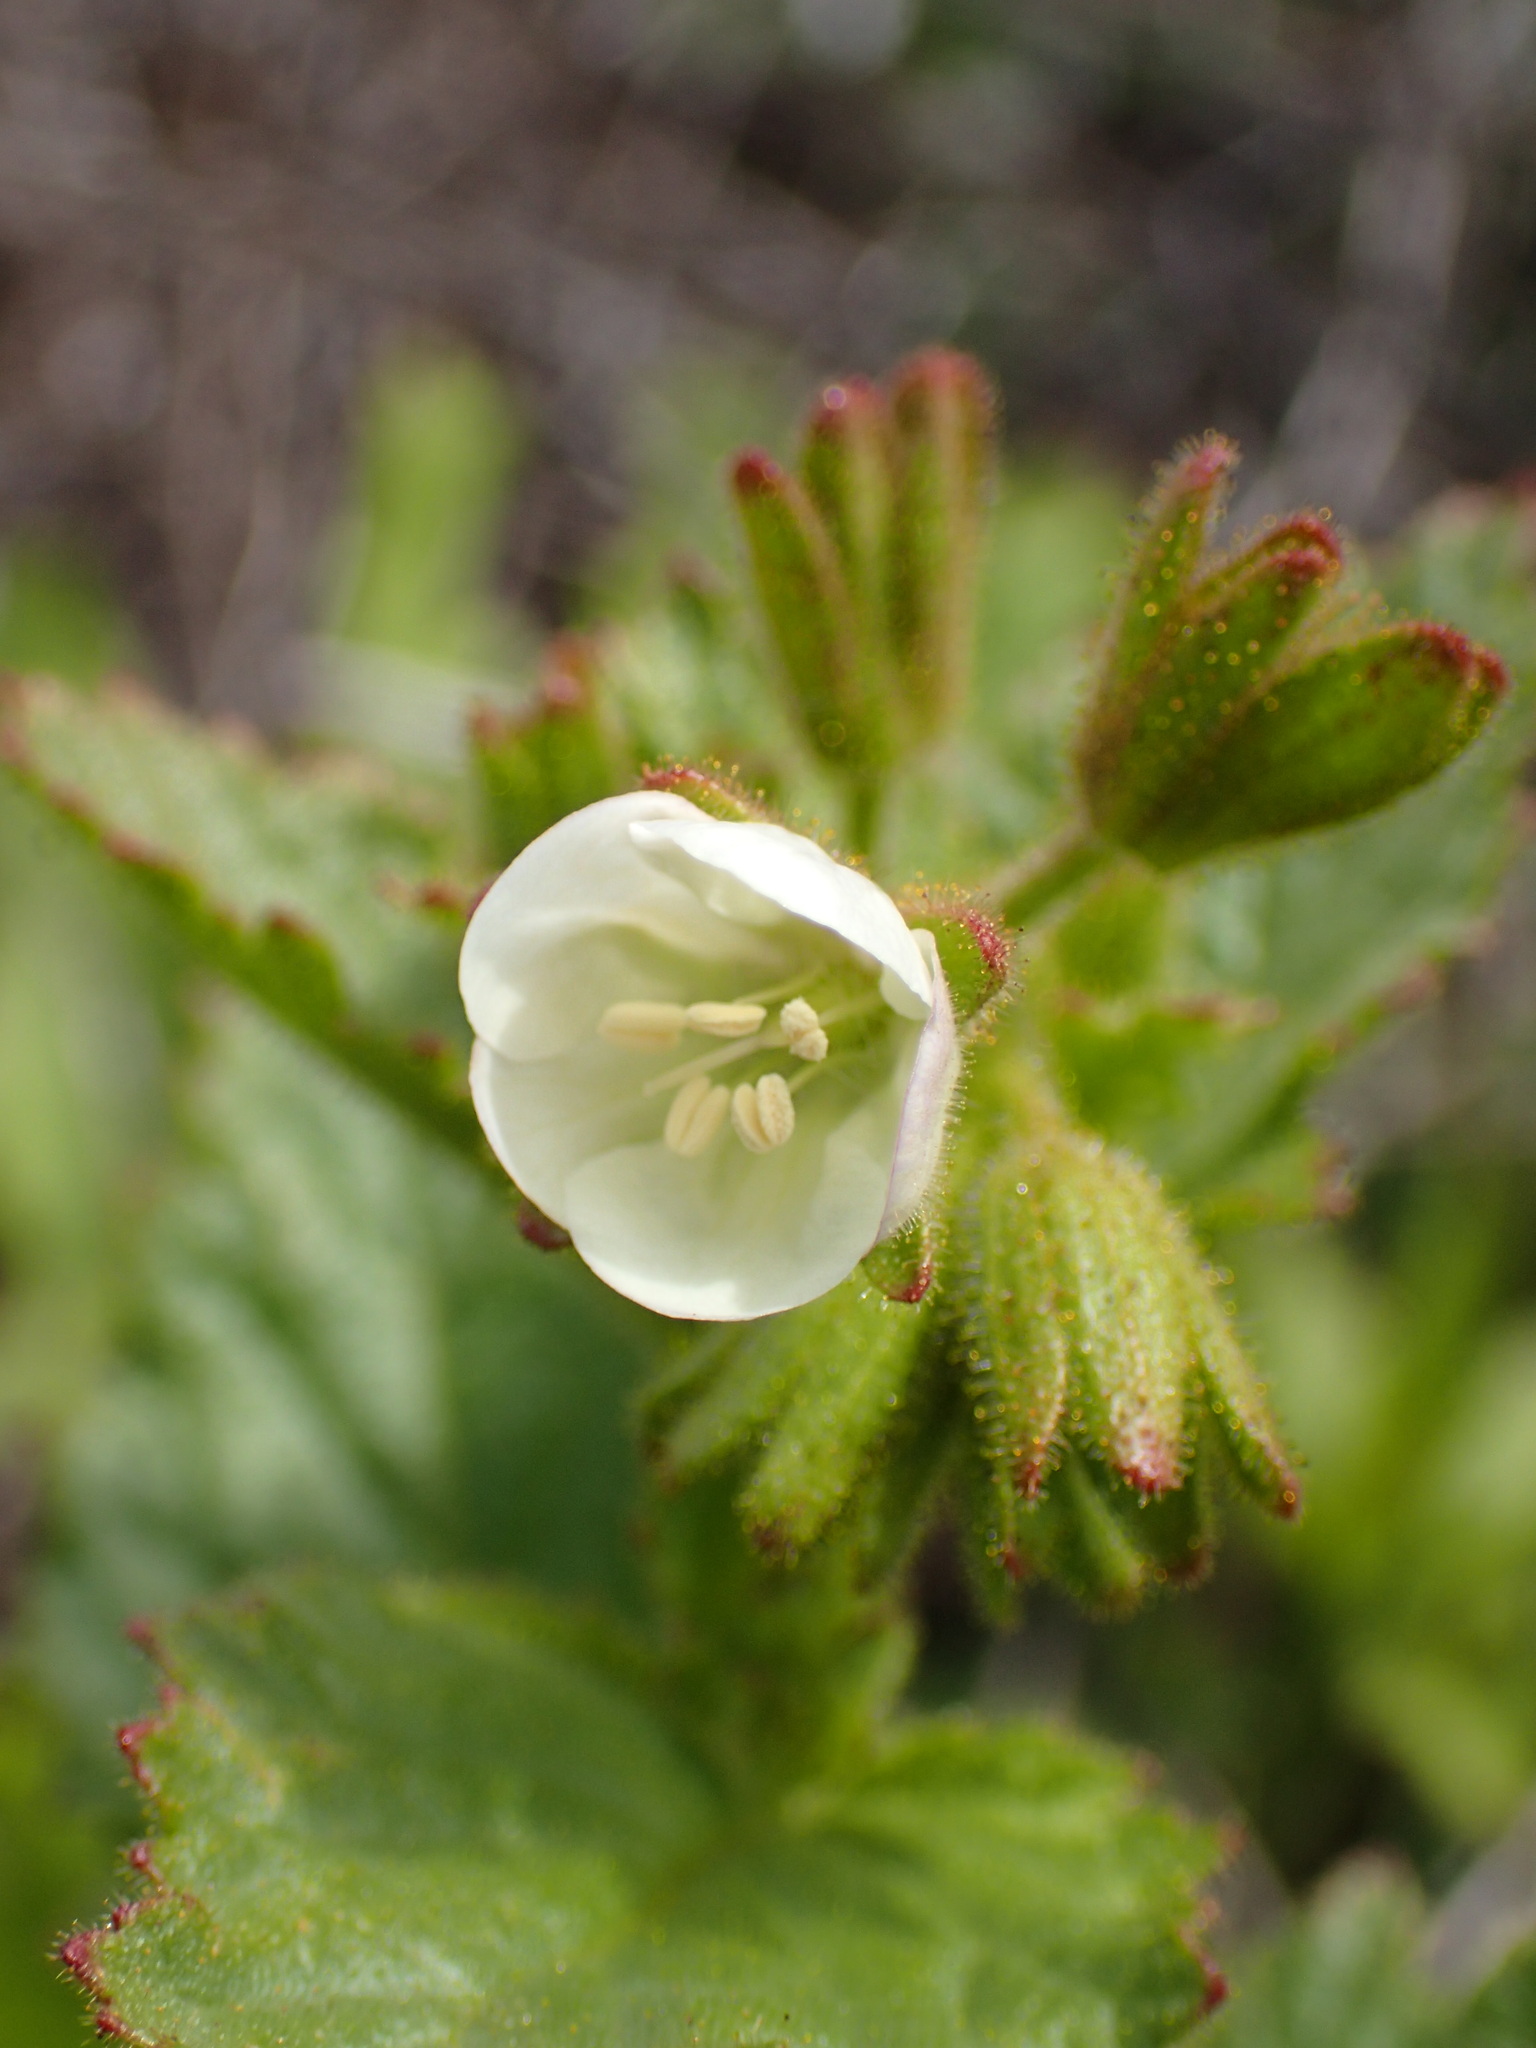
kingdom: Plantae
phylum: Tracheophyta
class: Magnoliopsida
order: Boraginales
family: Hydrophyllaceae
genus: Phacelia
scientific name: Phacelia viscida
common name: Sticky phacelia
